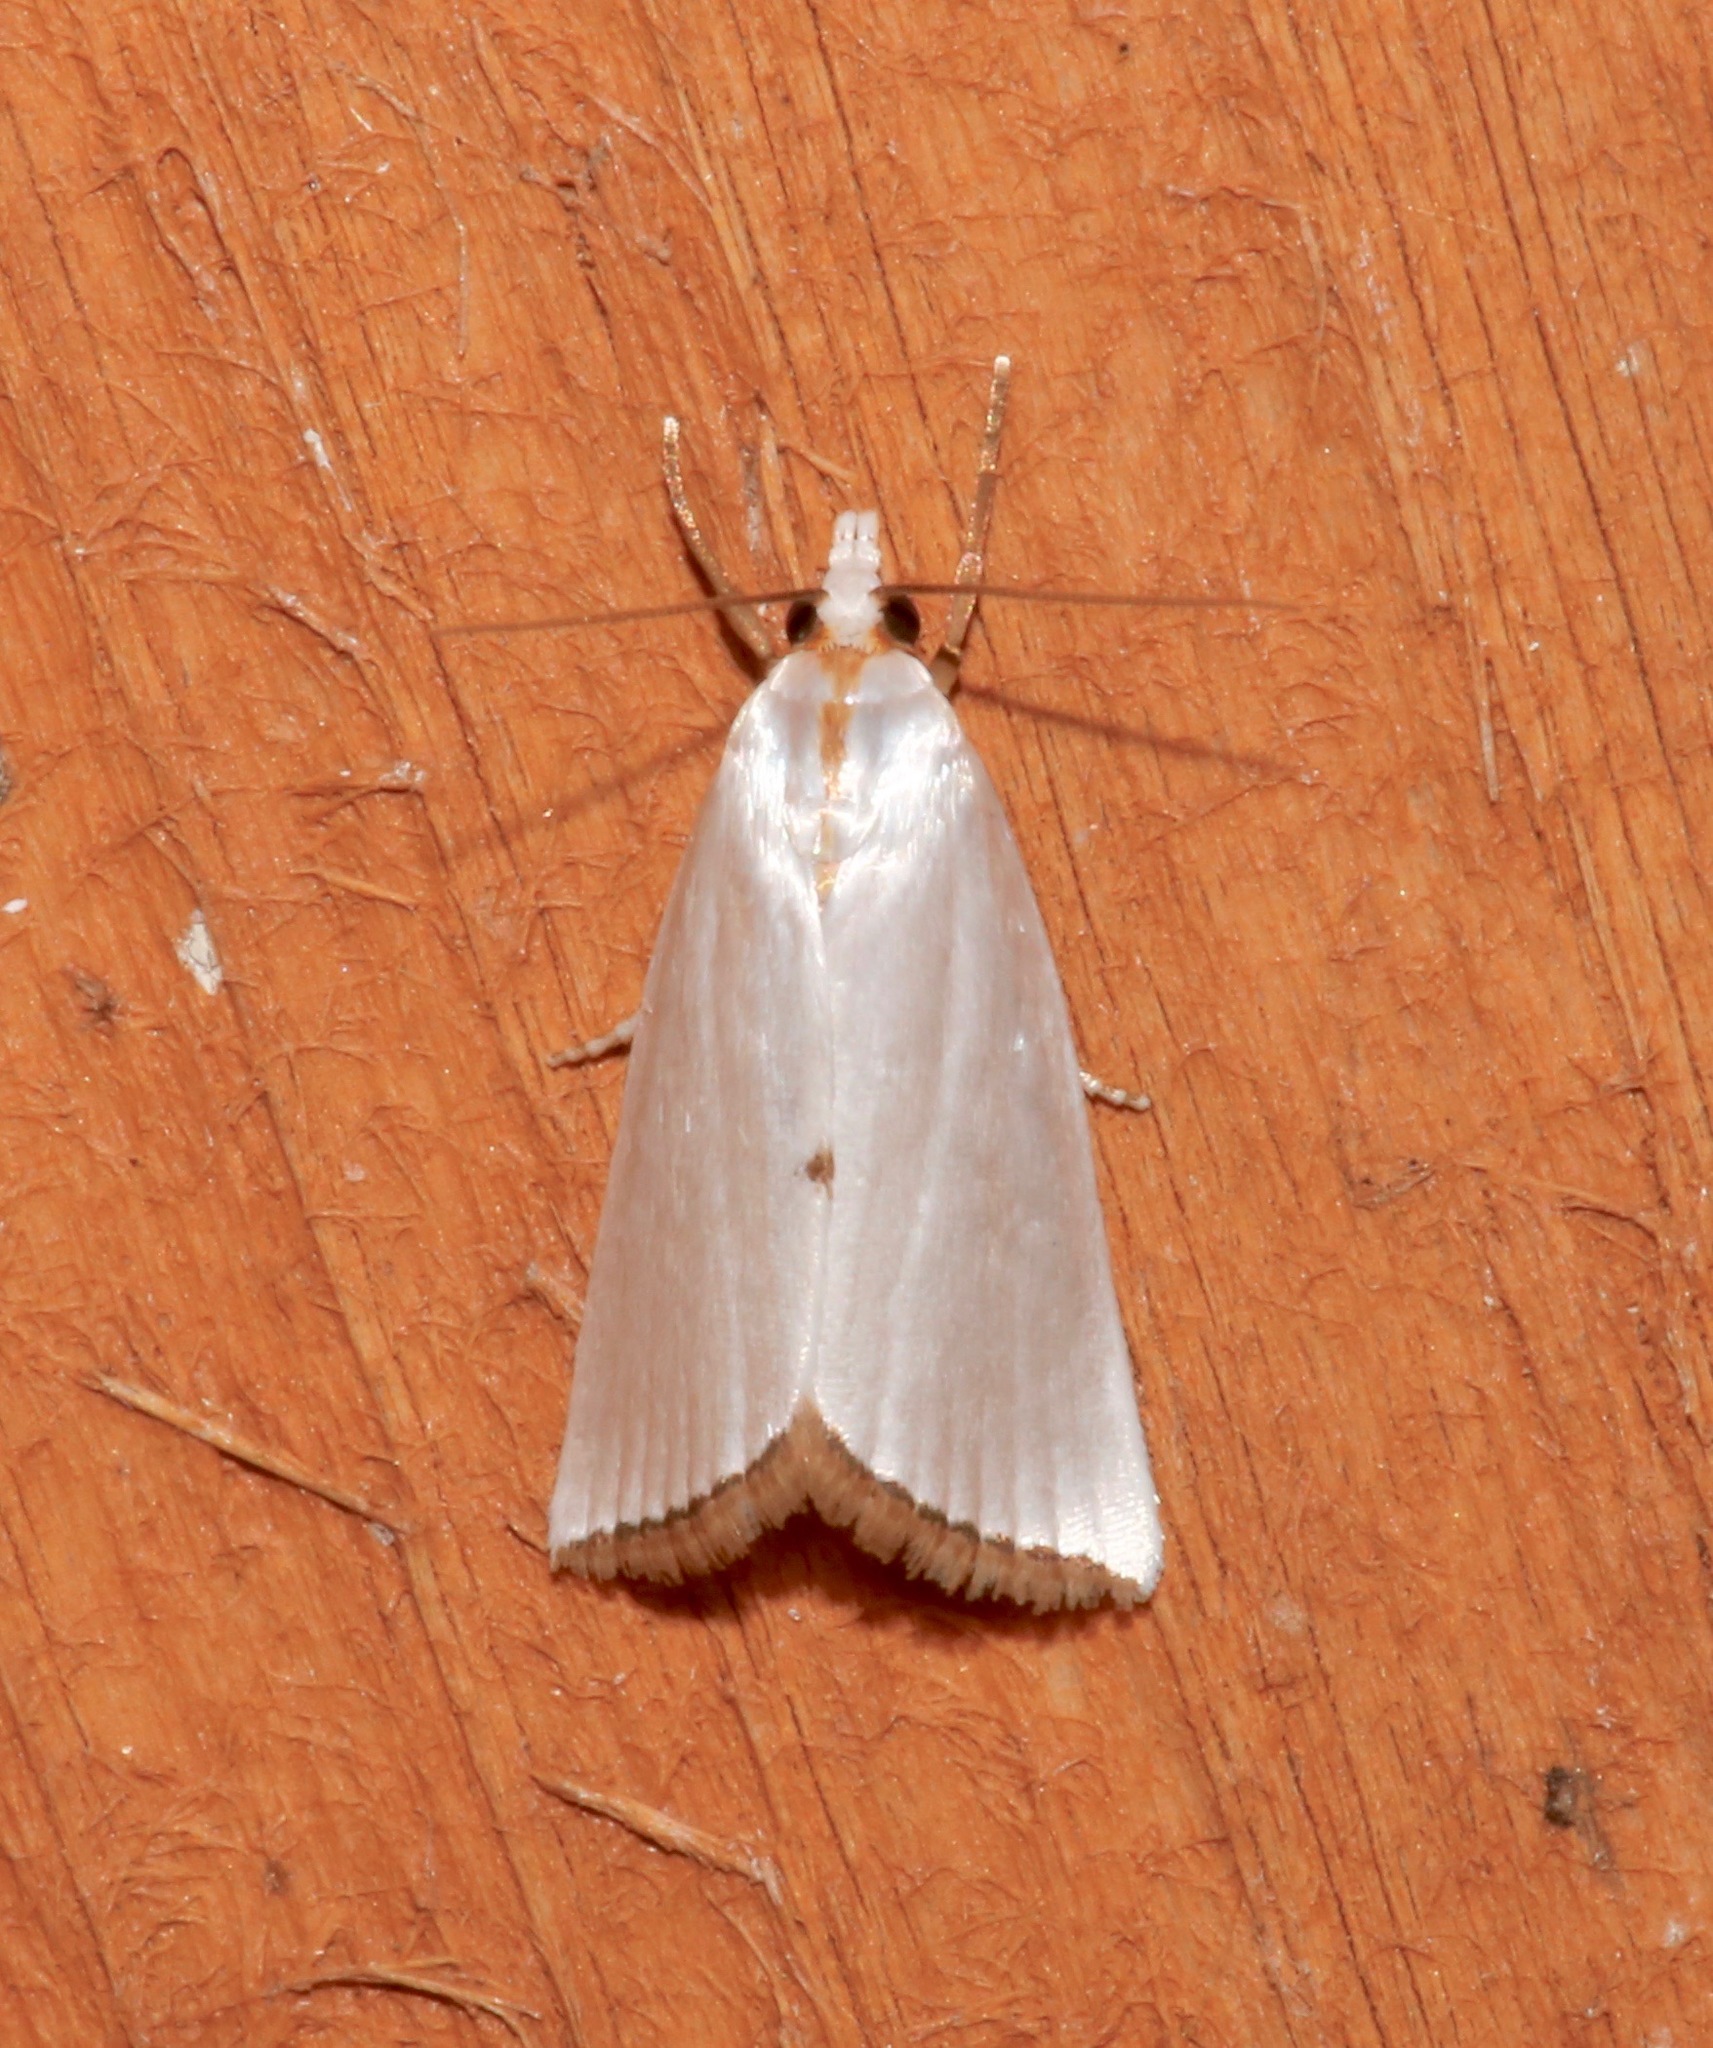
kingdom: Animalia
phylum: Arthropoda
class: Insecta
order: Lepidoptera
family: Crambidae
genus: Argyria
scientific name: Argyria nivalis
